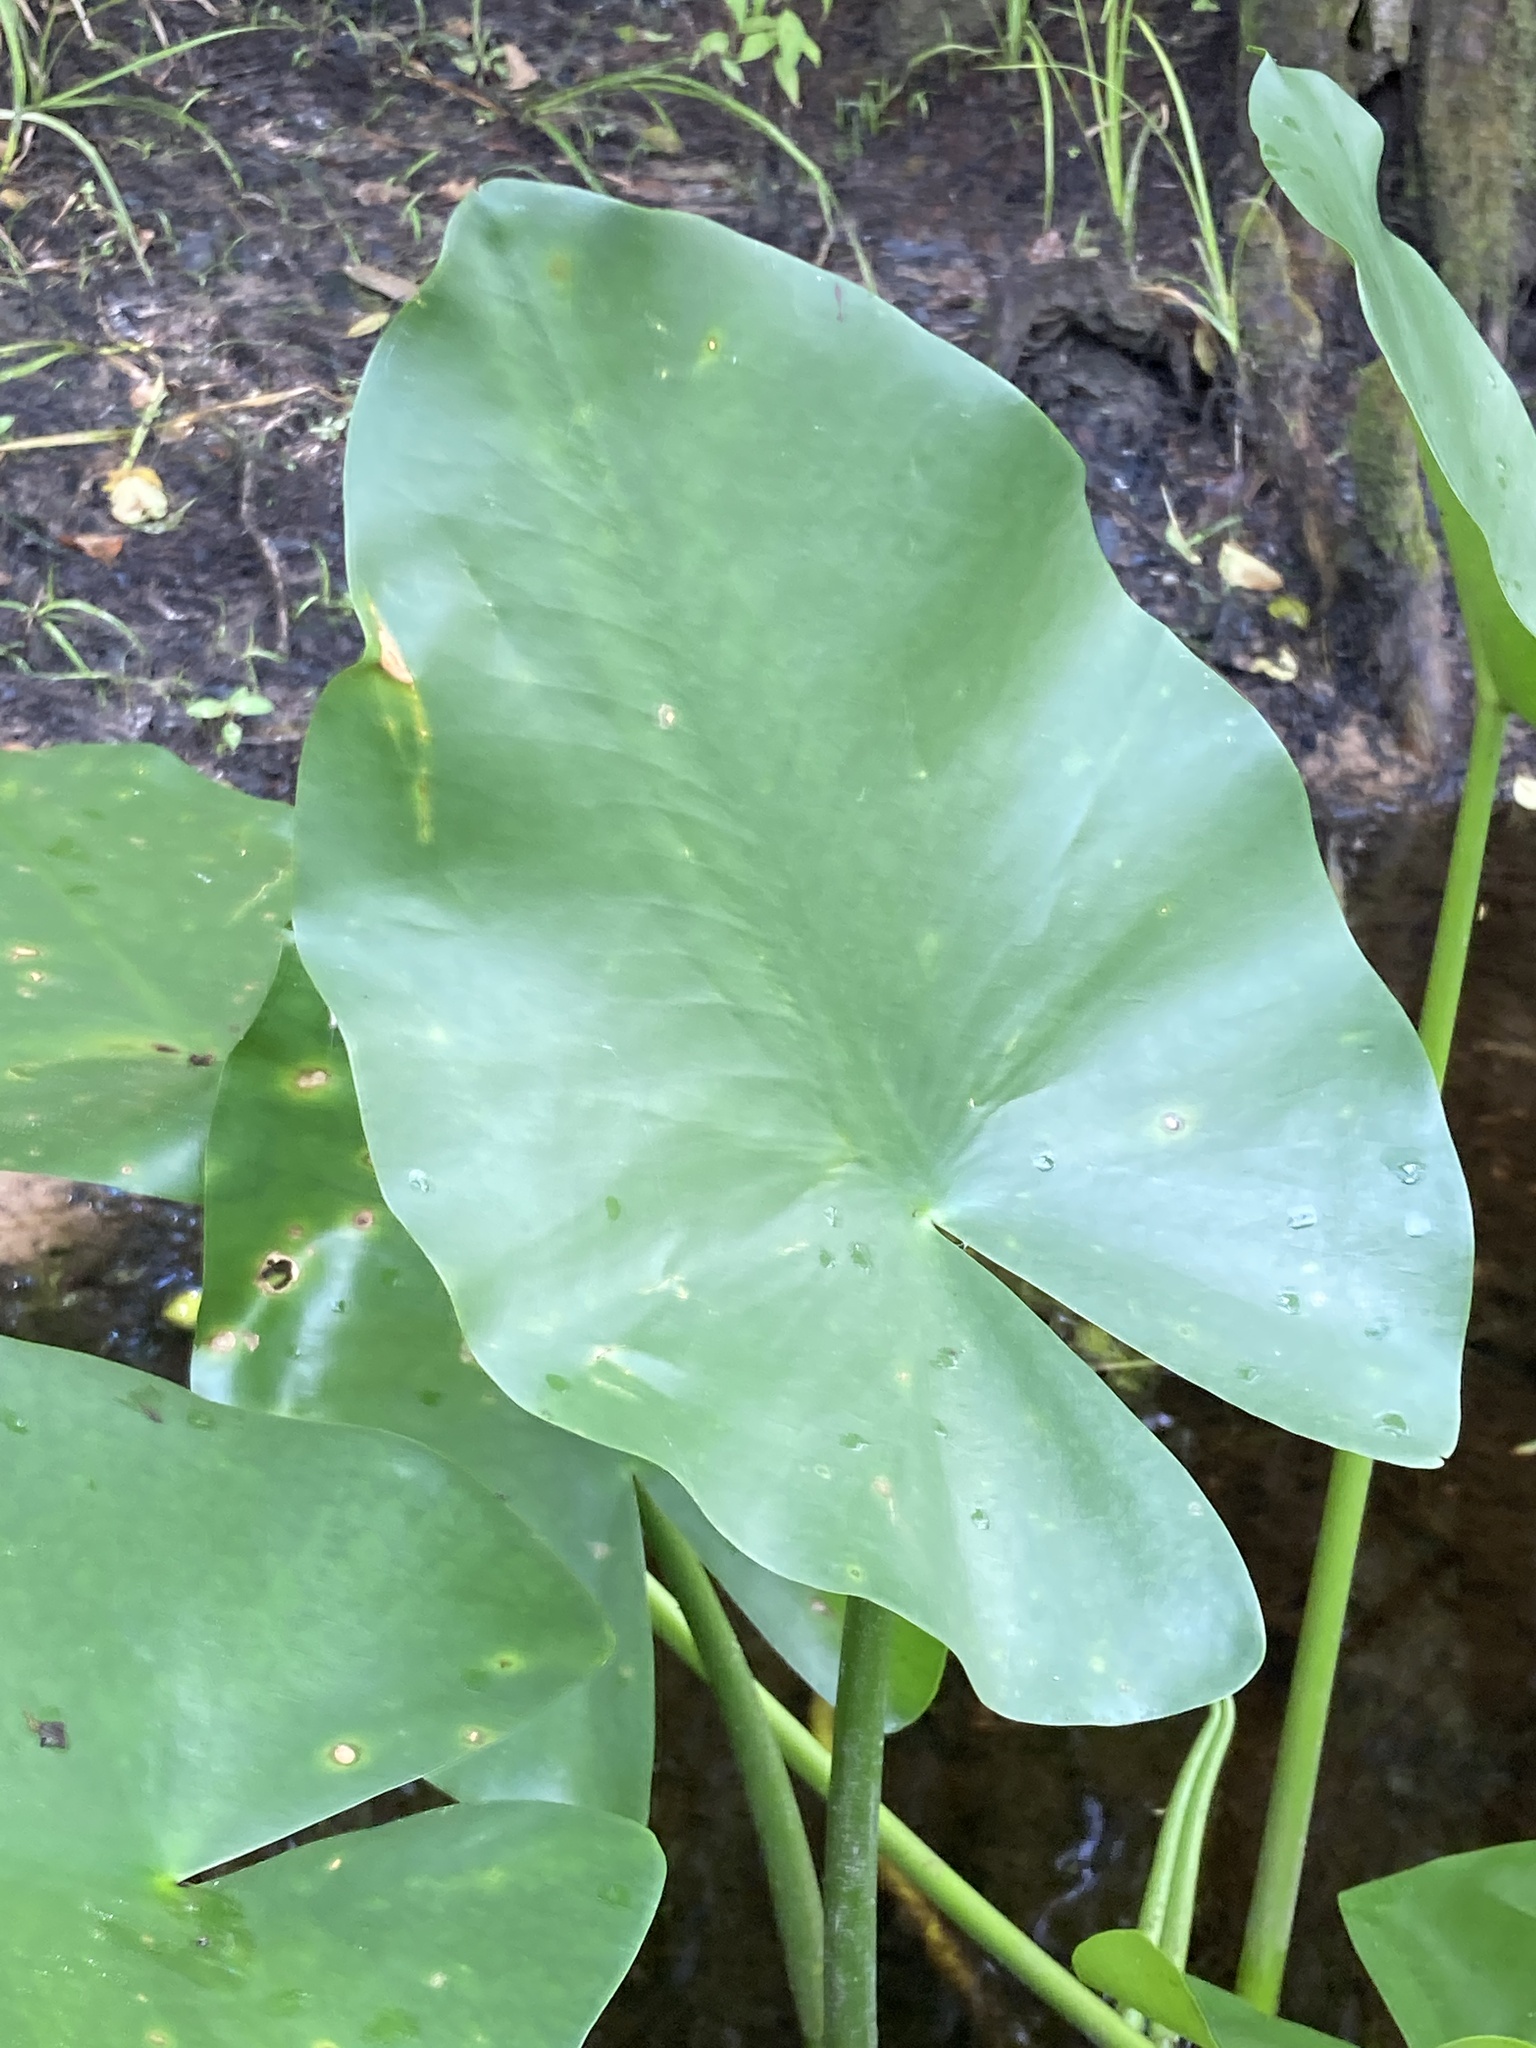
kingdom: Plantae
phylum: Tracheophyta
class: Magnoliopsida
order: Nymphaeales
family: Nymphaeaceae
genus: Nuphar
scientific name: Nuphar advena
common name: Spatter-dock
